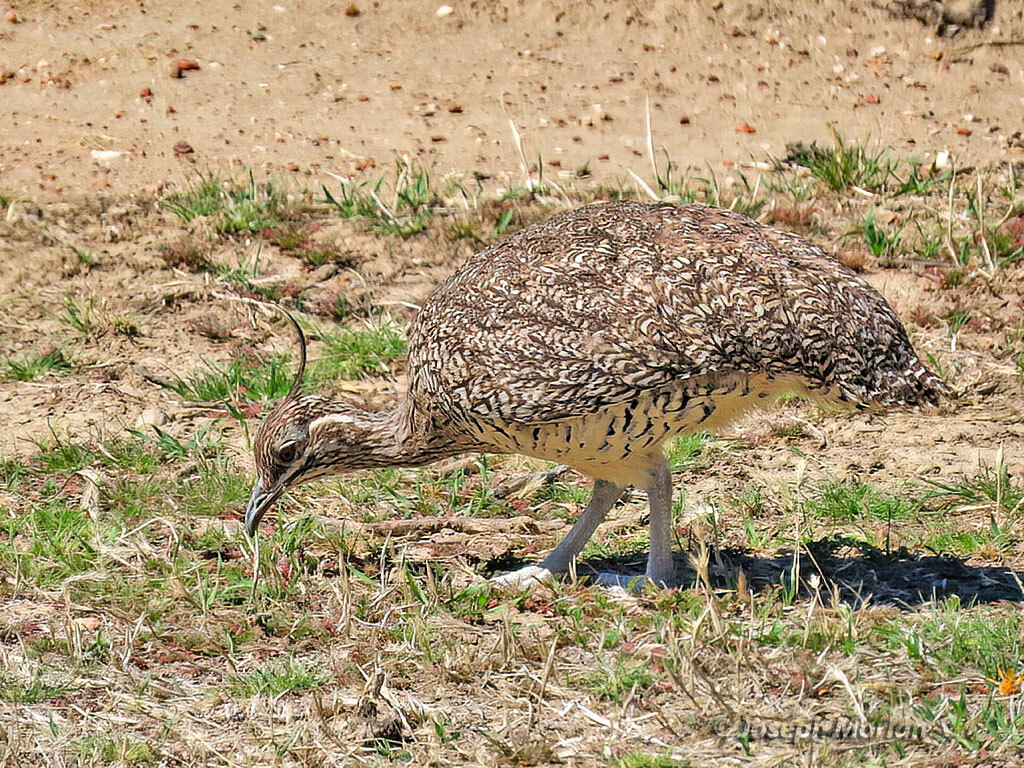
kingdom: Animalia
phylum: Chordata
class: Aves
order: Tinamiformes
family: Tinamidae
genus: Eudromia
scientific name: Eudromia elegans
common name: Elegant crested tinamou
